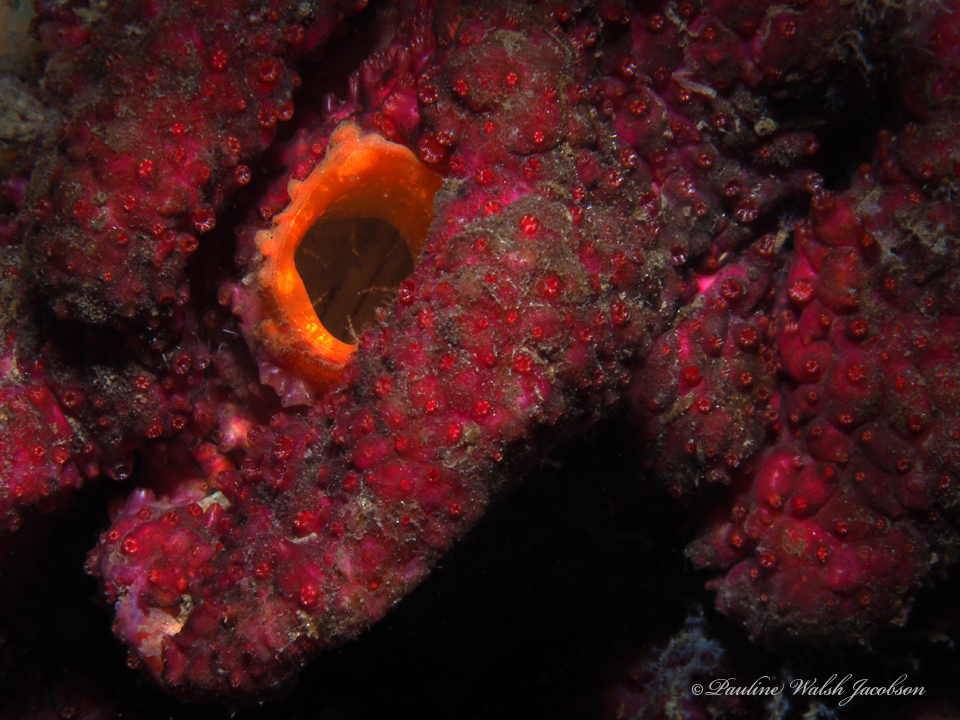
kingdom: Animalia
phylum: Chordata
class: Ascidiacea
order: Stolidobranchia
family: Styelidae
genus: Styela
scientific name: Styela canopus
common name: Divided tunicate
